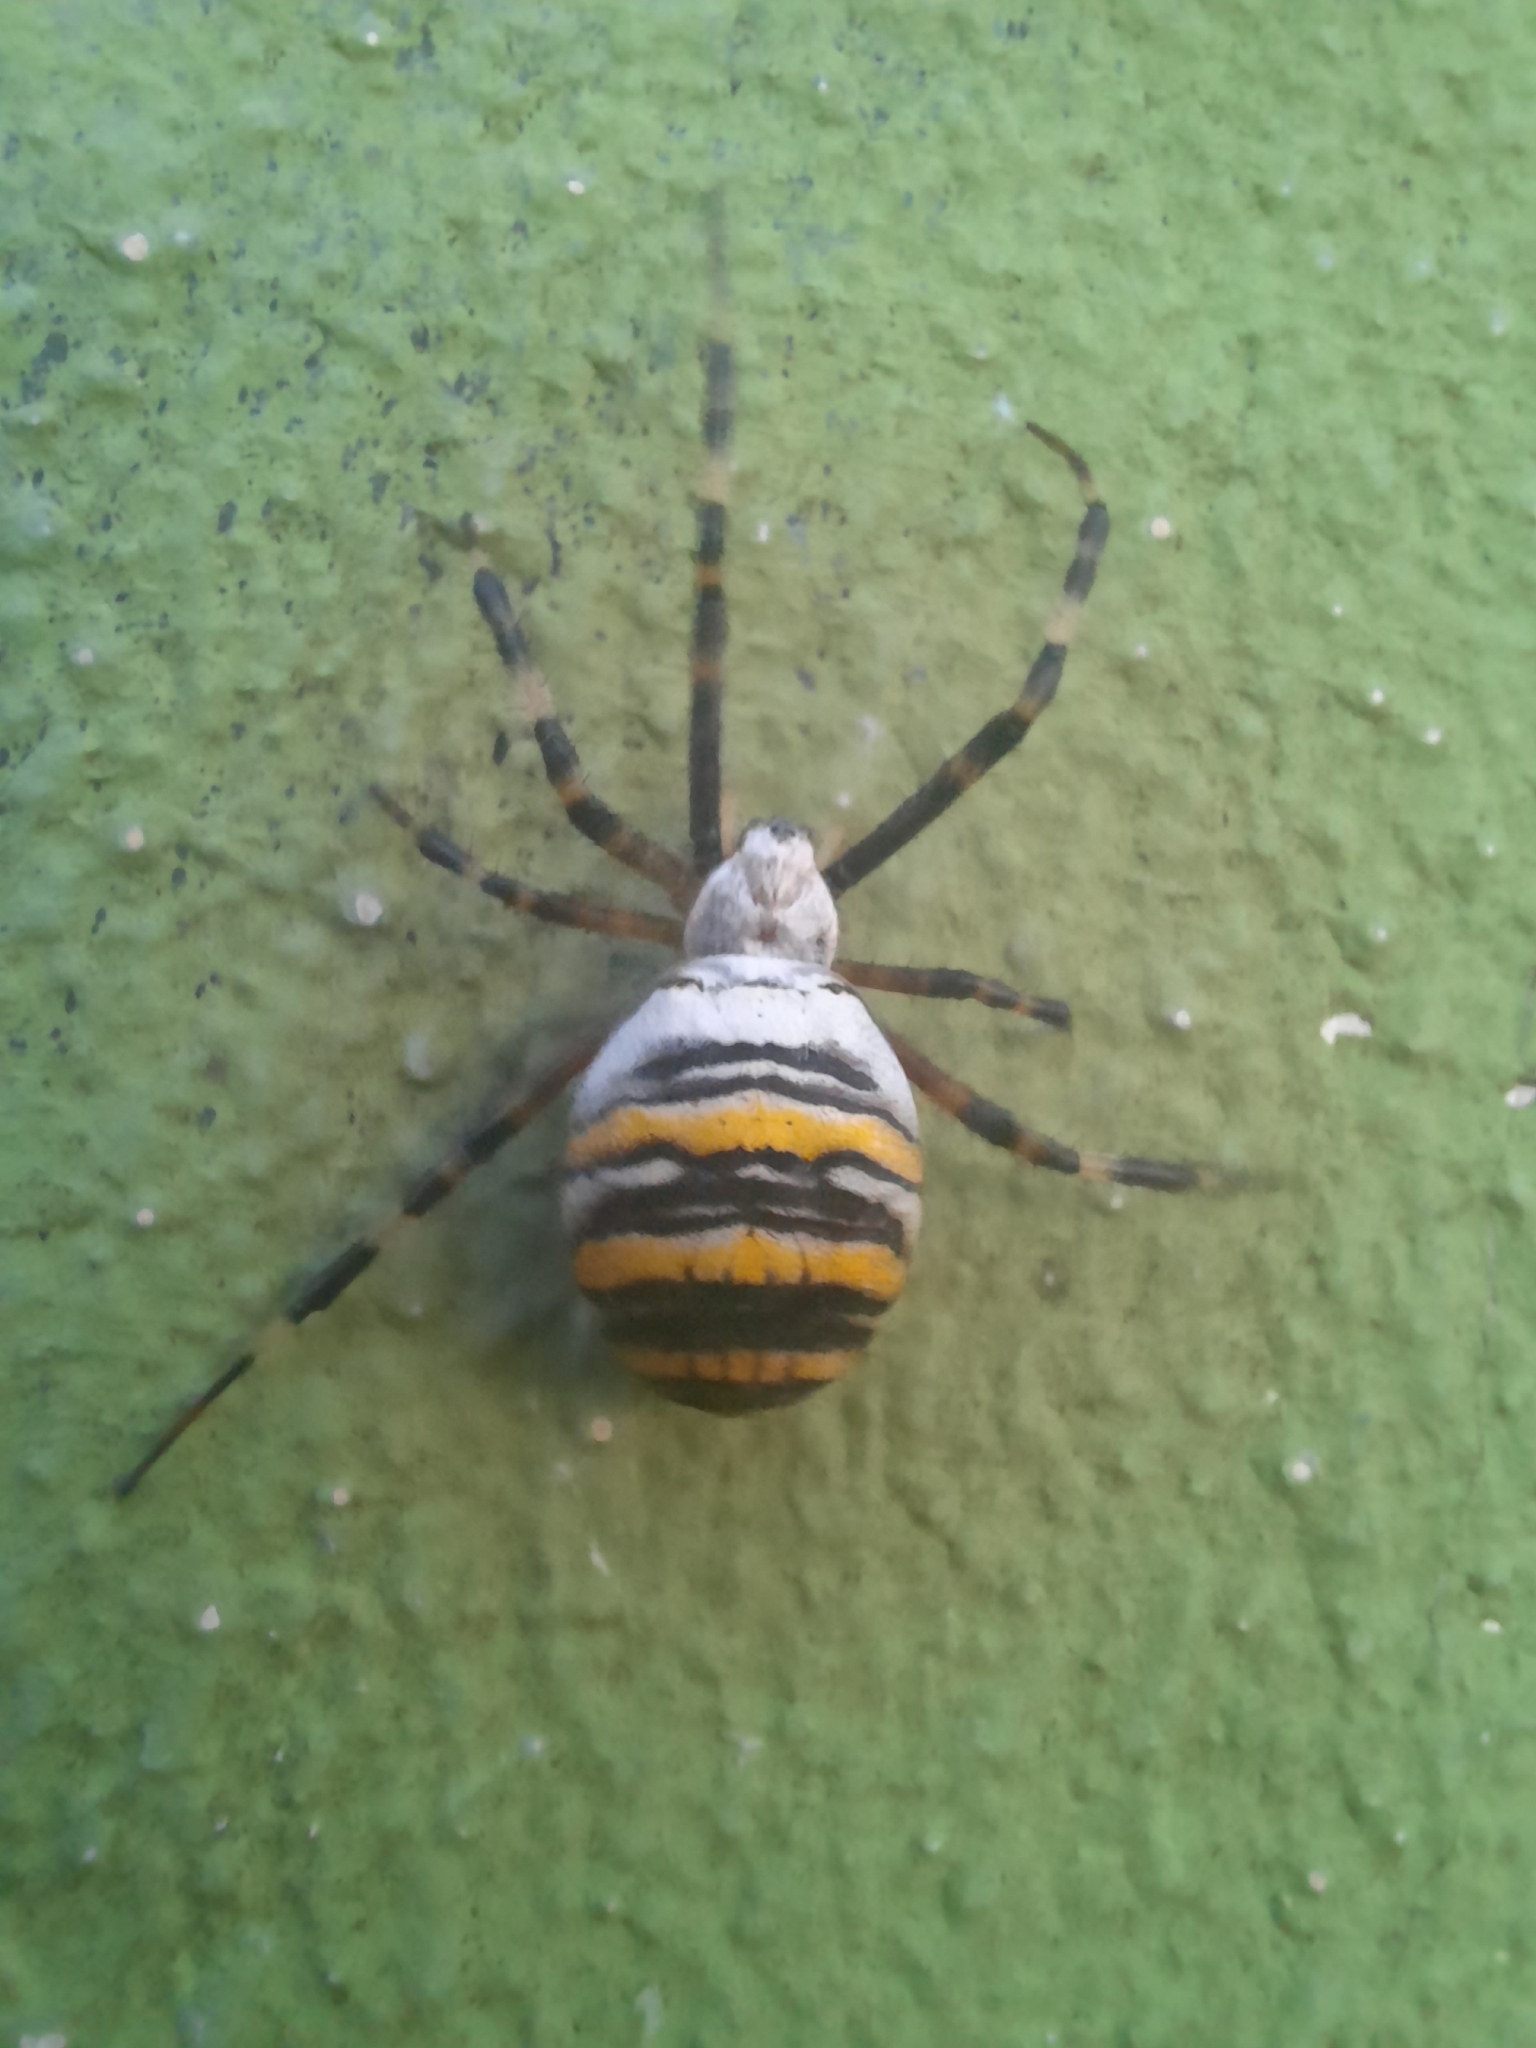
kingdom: Animalia
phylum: Arthropoda
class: Arachnida
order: Araneae
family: Araneidae
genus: Argiope
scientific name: Argiope bruennichi
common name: Wasp spider
